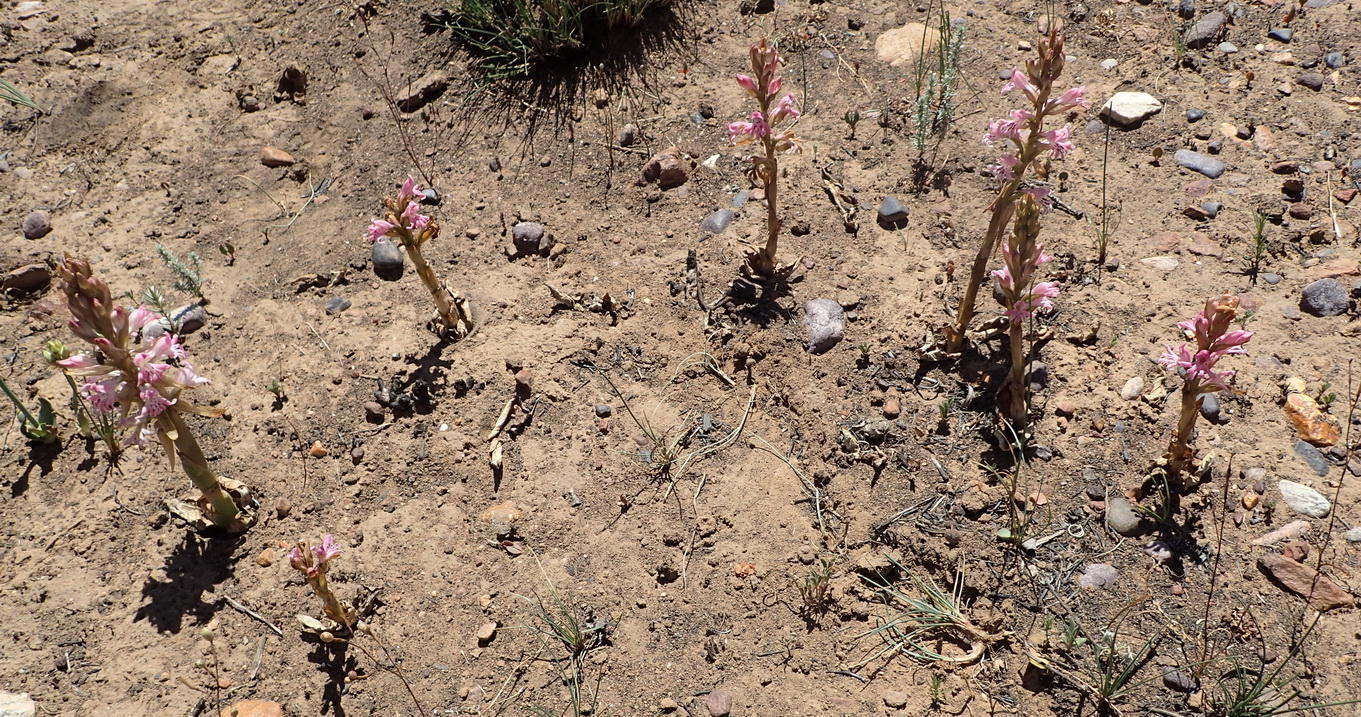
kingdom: Plantae
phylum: Tracheophyta
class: Liliopsida
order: Asparagales
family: Orchidaceae
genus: Satyrium
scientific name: Satyrium erectum
